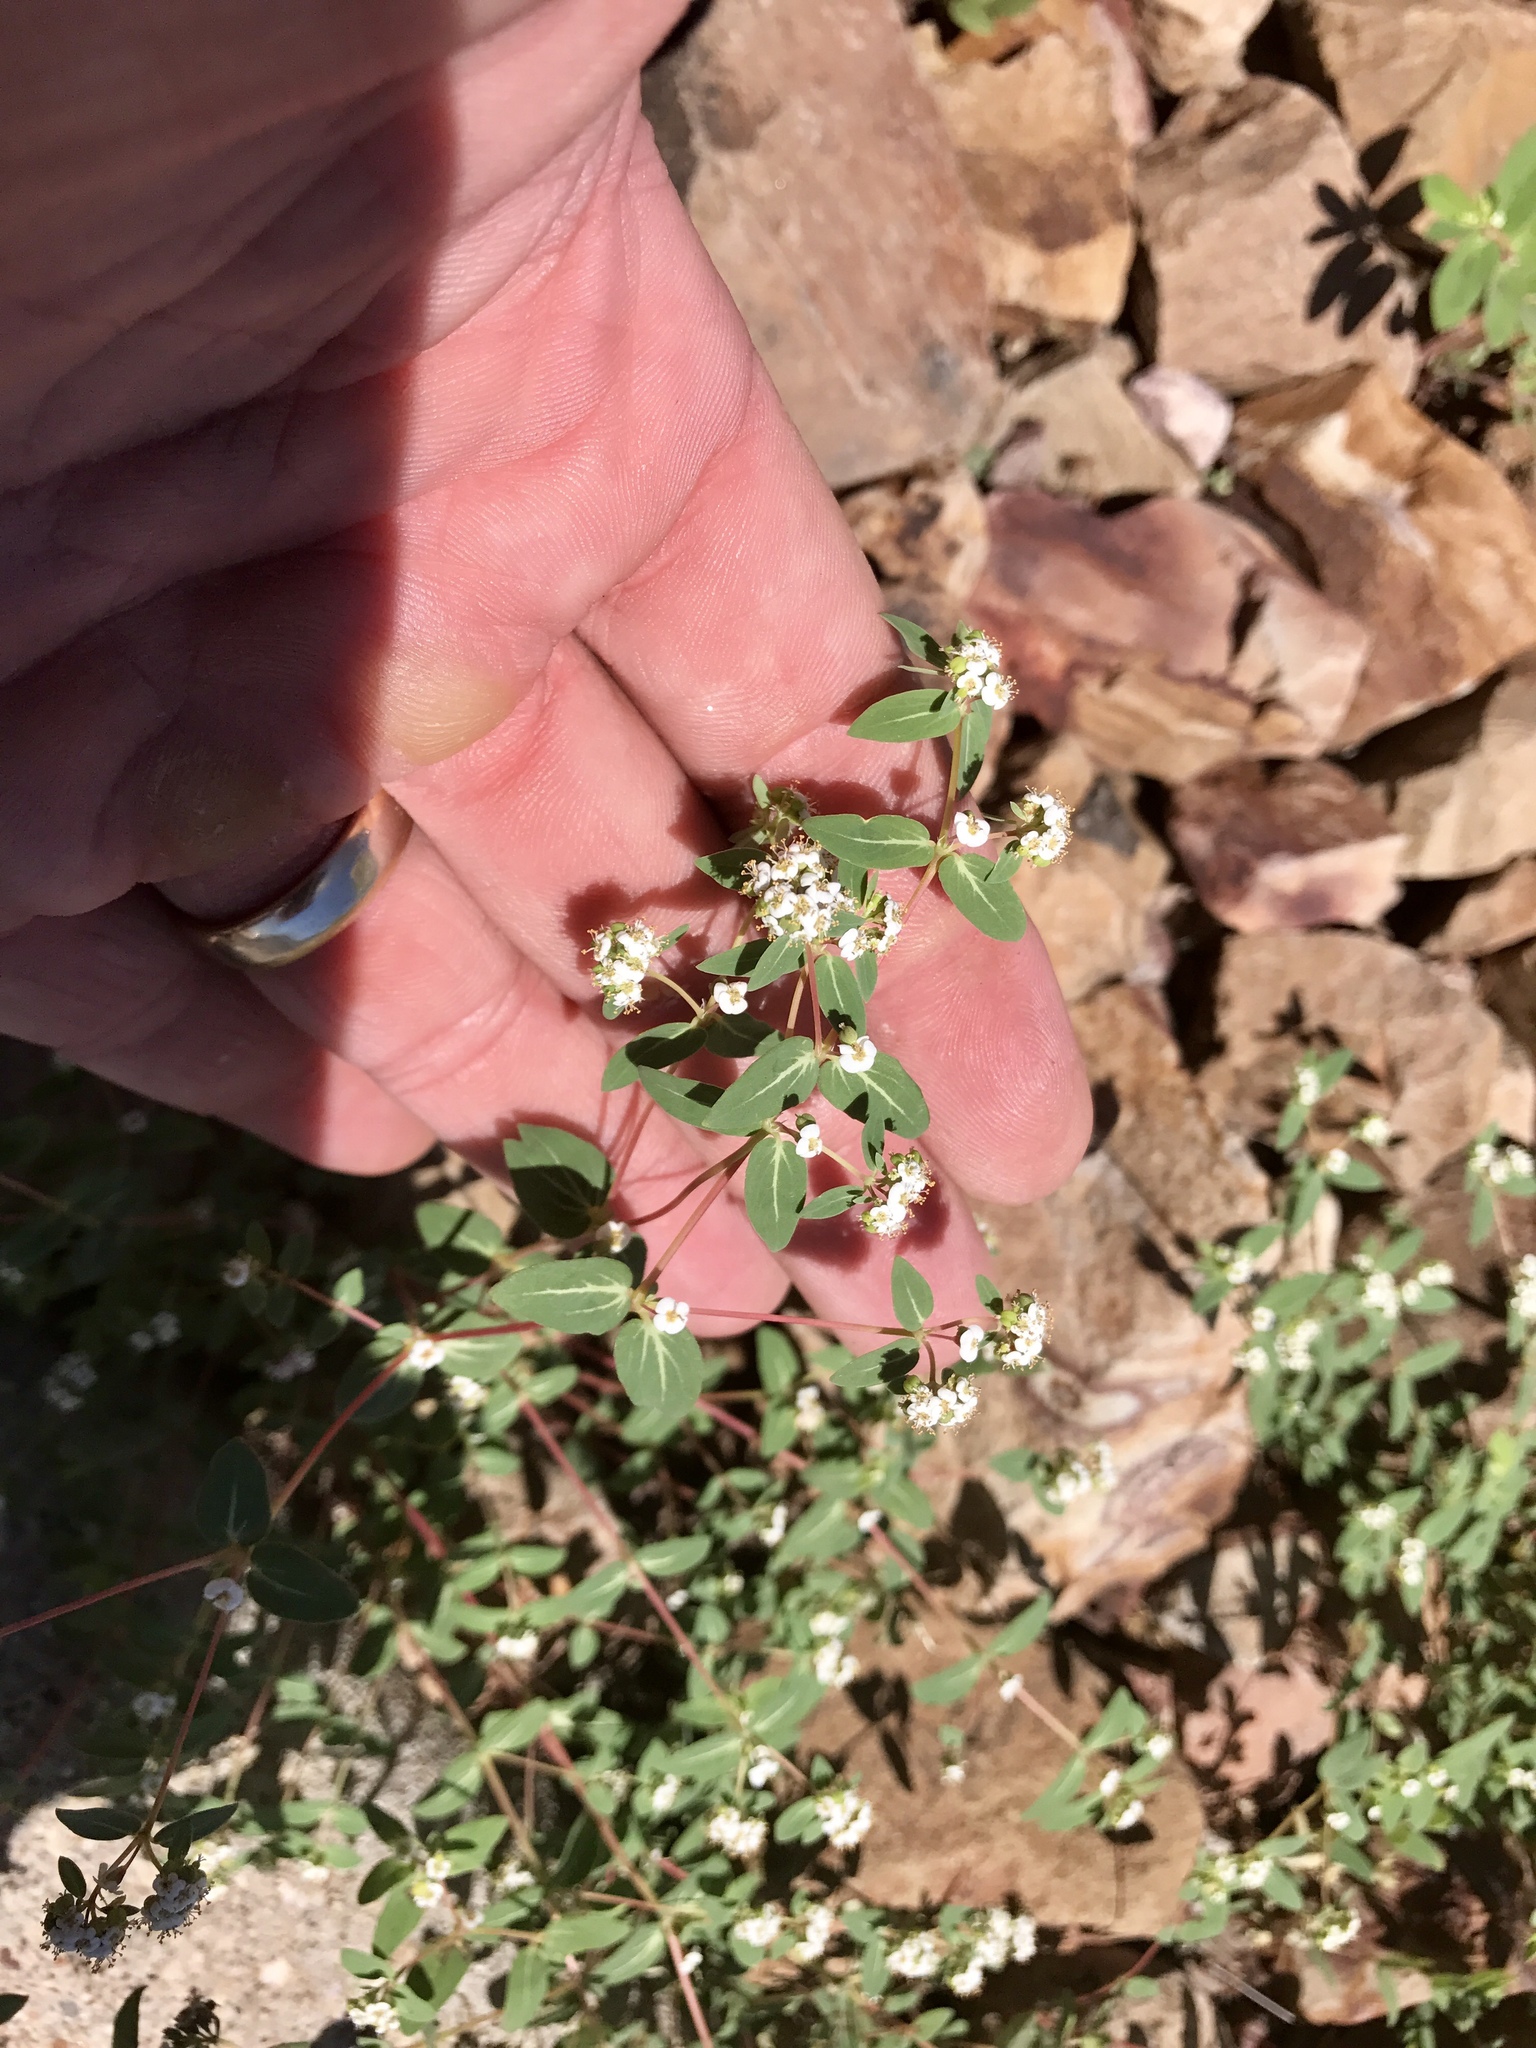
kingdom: Plantae
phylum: Tracheophyta
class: Magnoliopsida
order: Malpighiales
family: Euphorbiaceae
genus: Euphorbia
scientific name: Euphorbia capitellata
